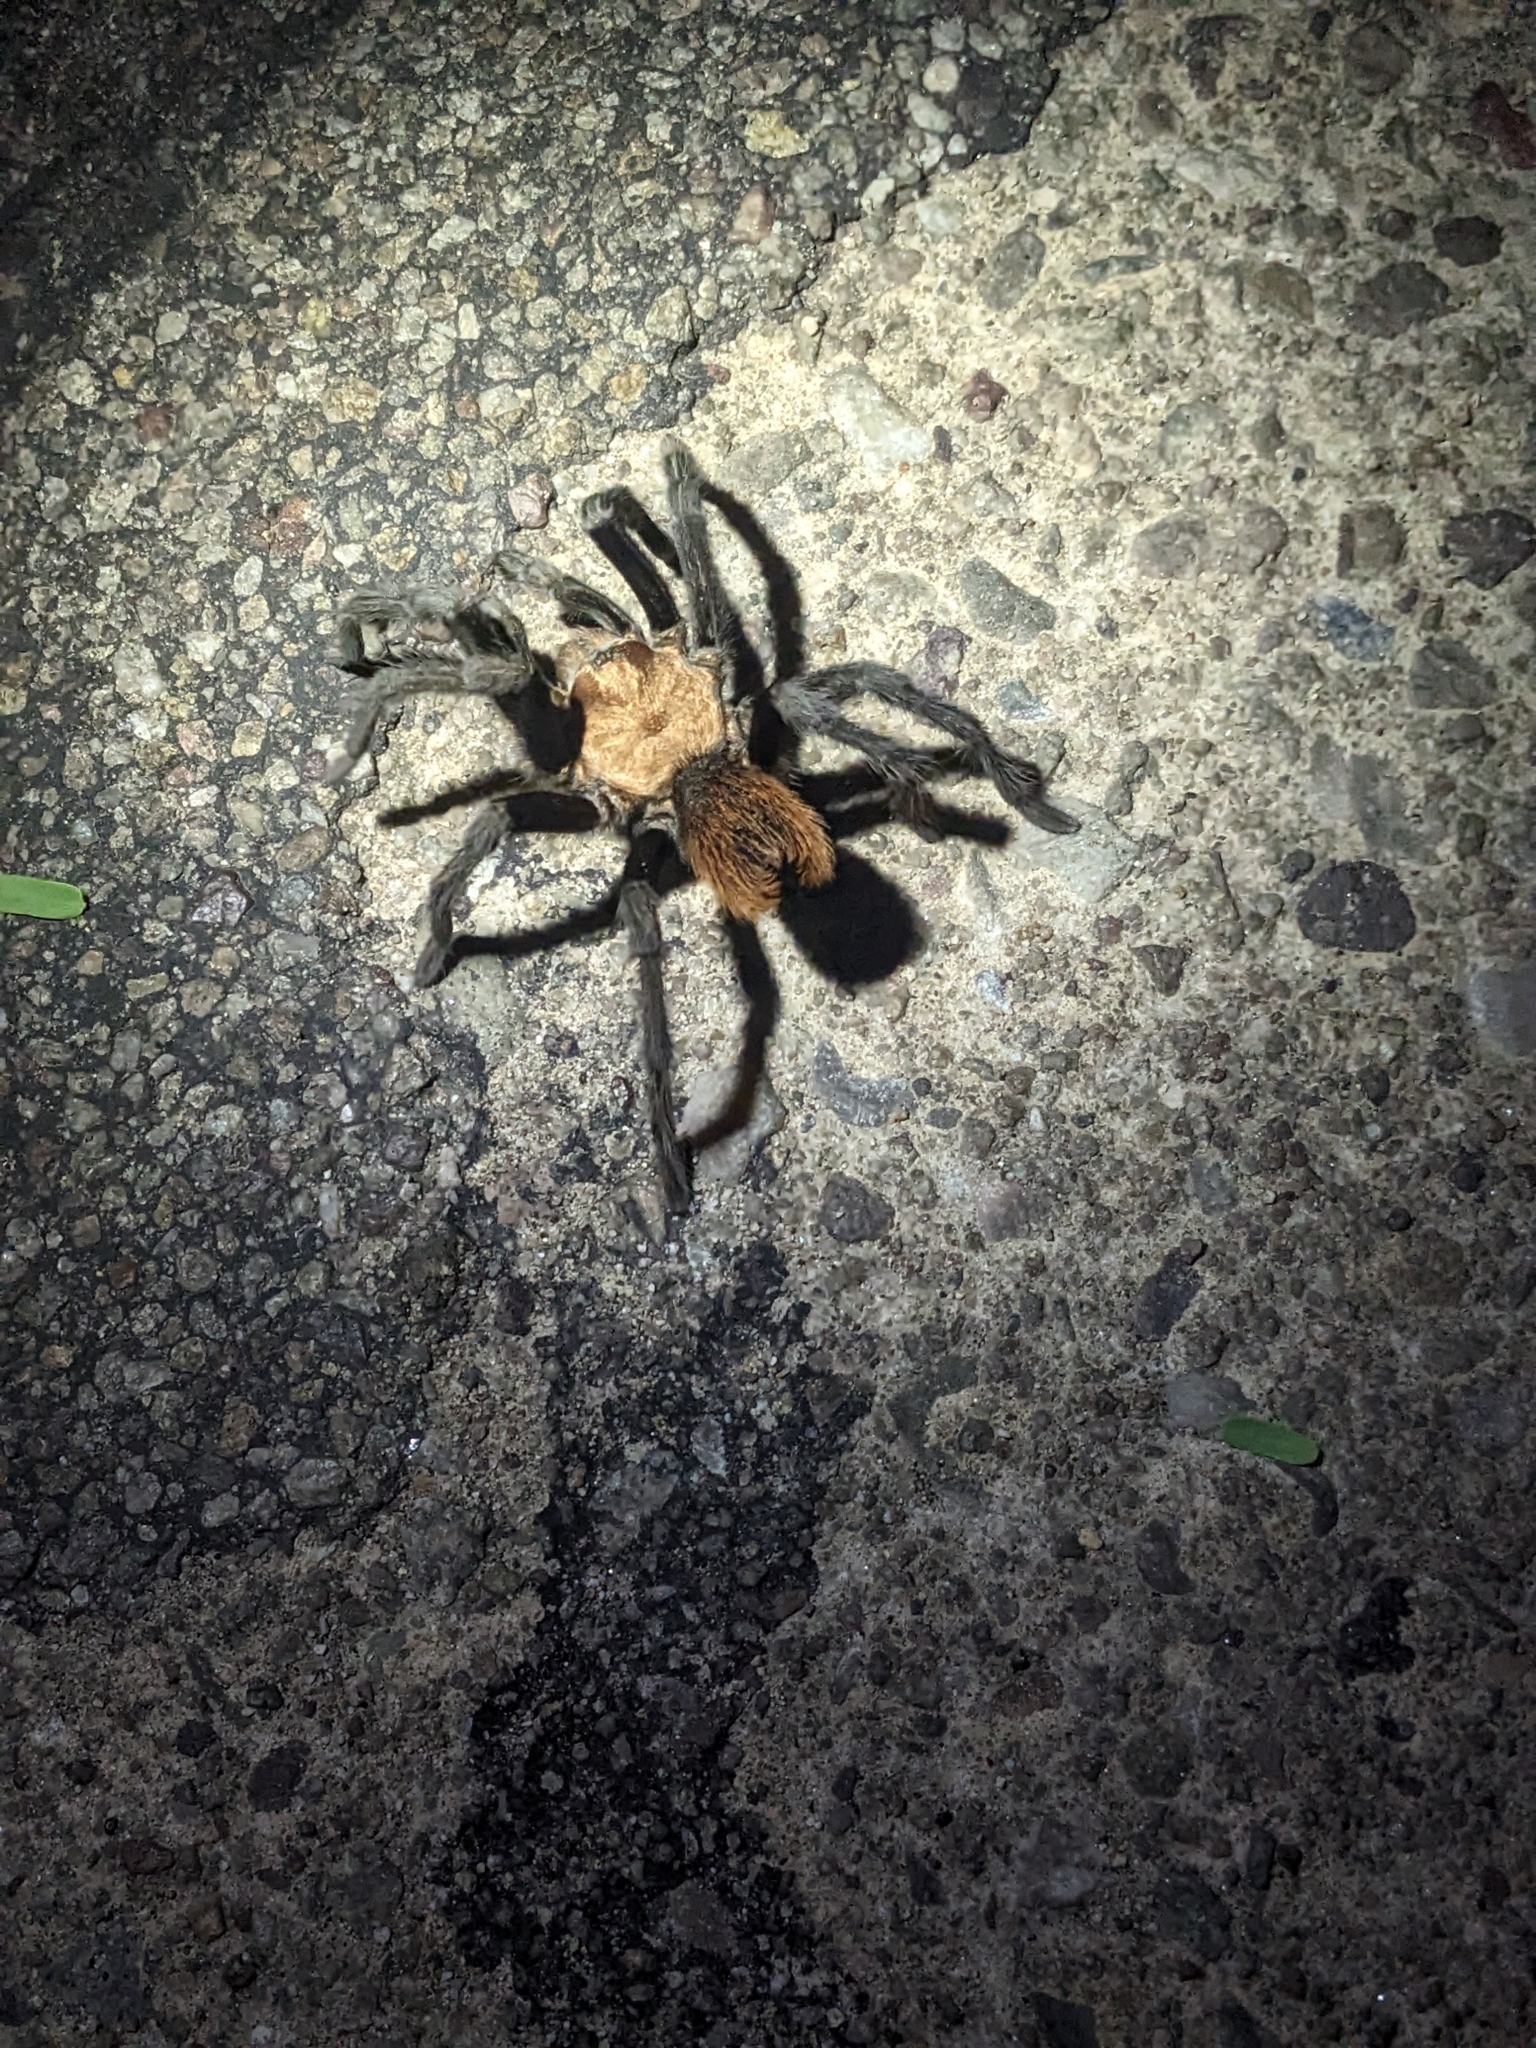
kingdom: Animalia
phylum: Arthropoda
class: Arachnida
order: Araneae
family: Theraphosidae
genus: Aphonopelma
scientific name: Aphonopelma chalcodes
